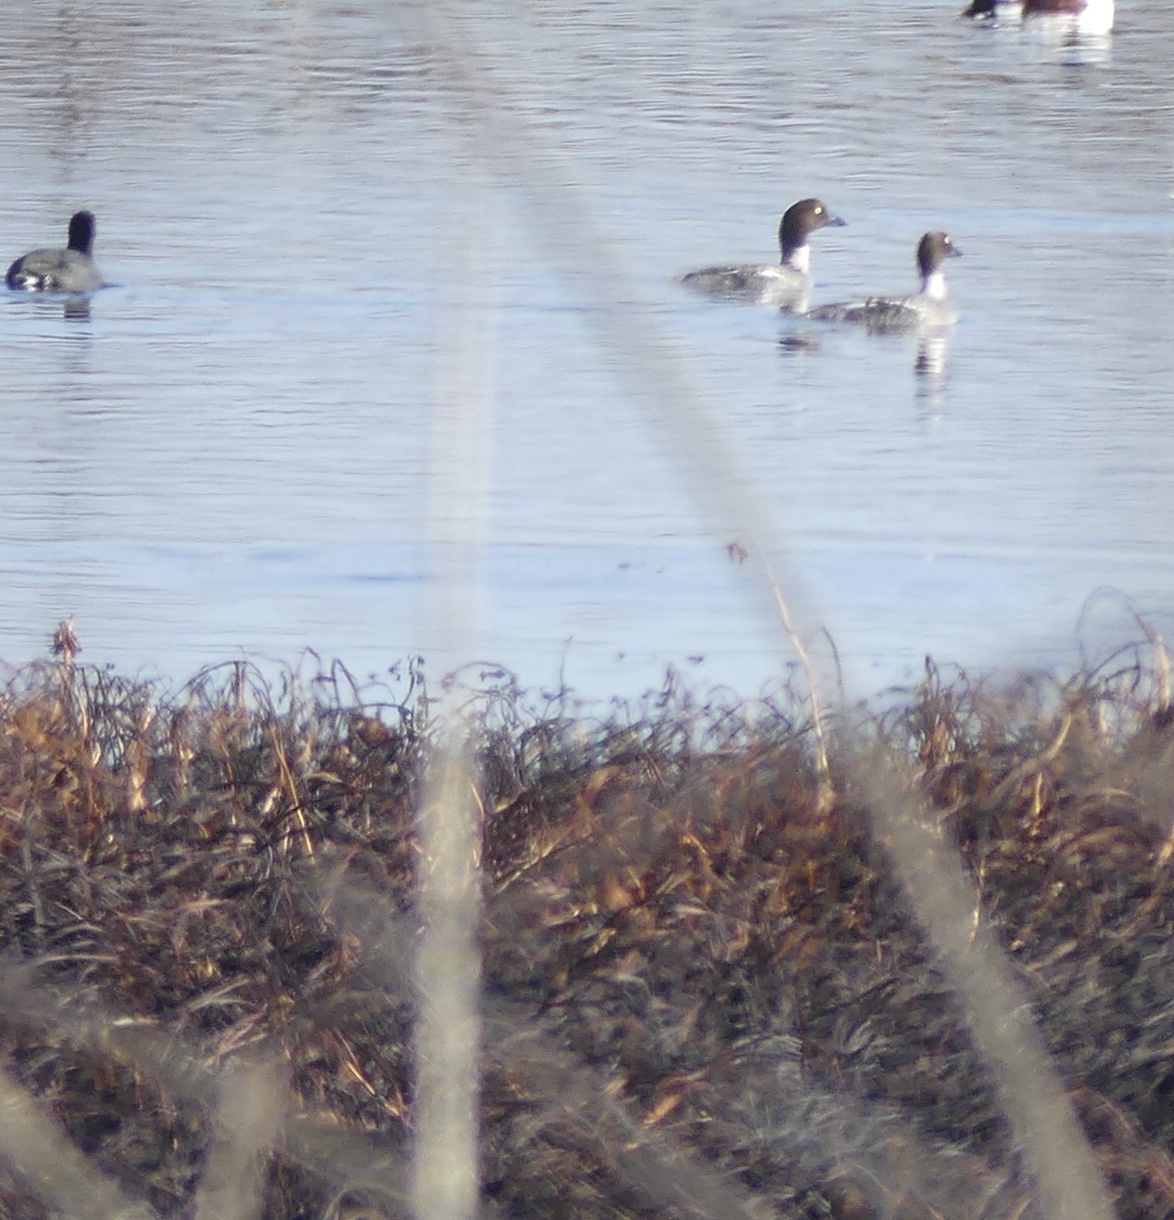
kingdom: Animalia
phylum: Chordata
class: Aves
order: Anseriformes
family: Anatidae
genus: Bucephala
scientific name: Bucephala clangula
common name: Common goldeneye
